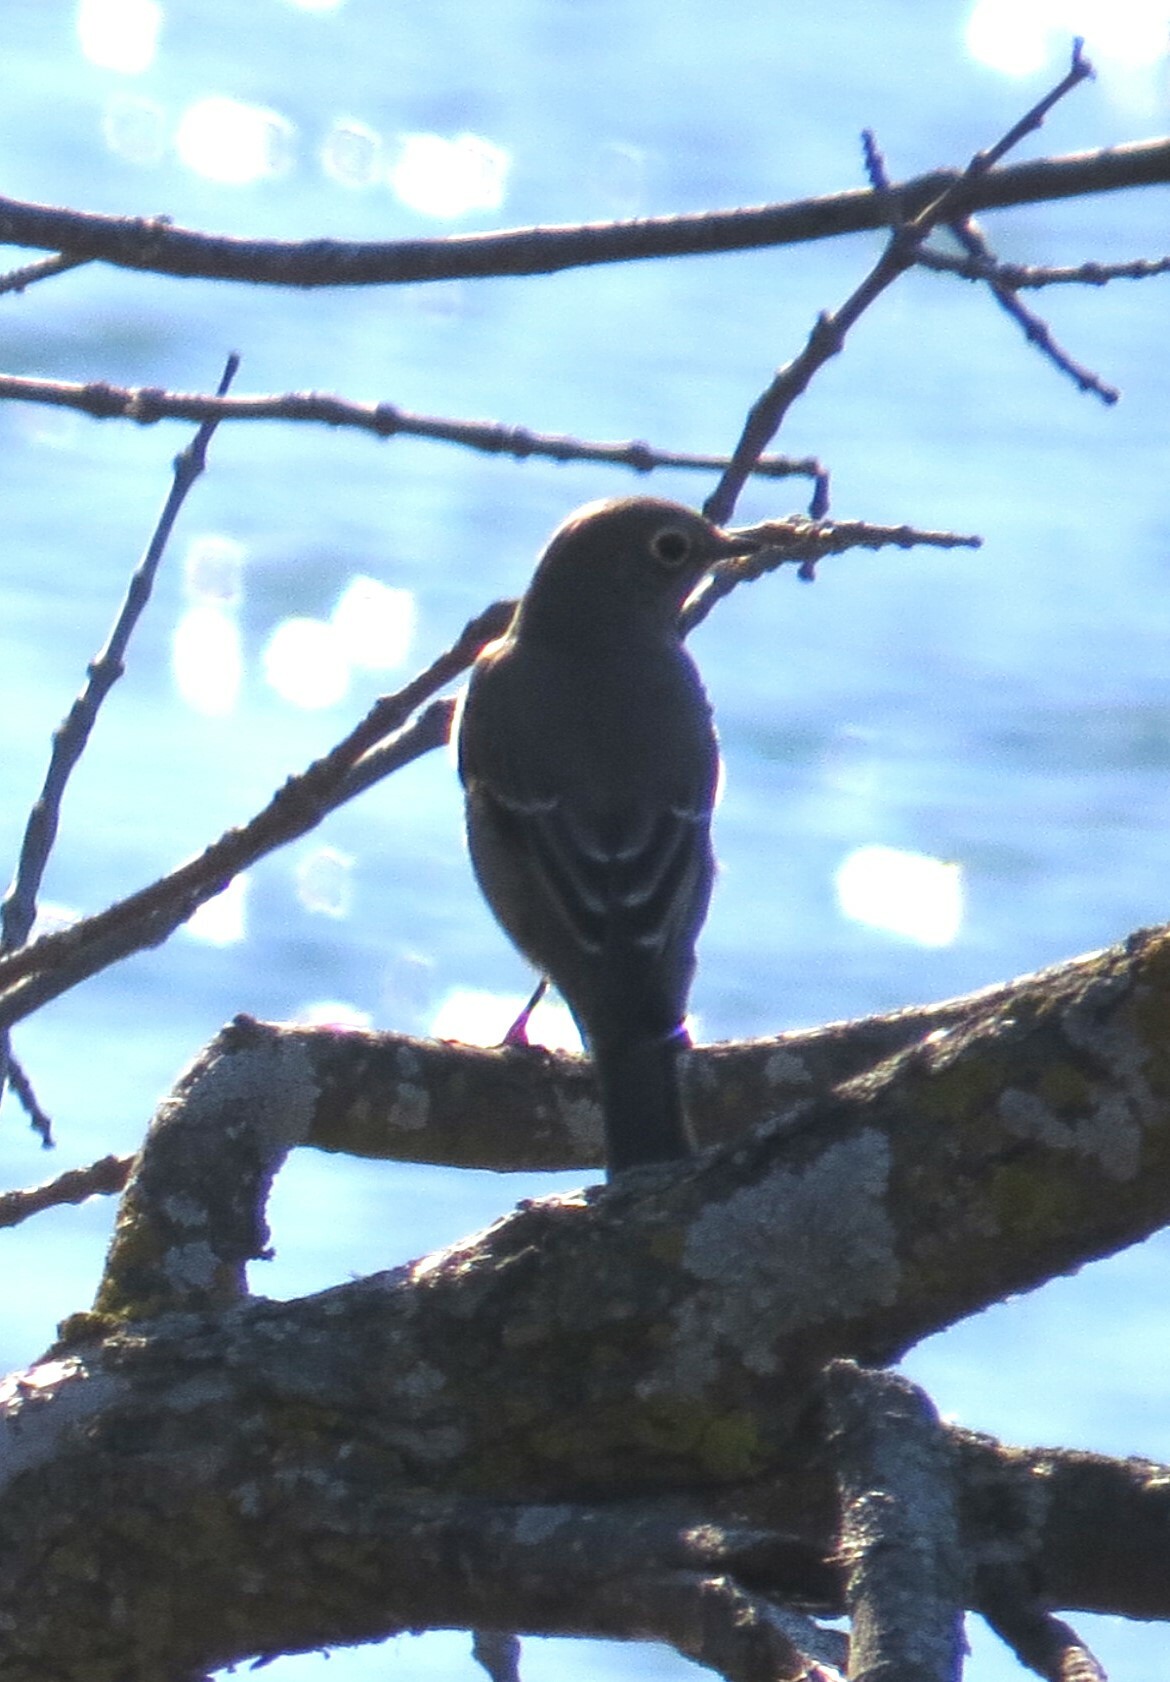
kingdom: Animalia
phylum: Chordata
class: Aves
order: Passeriformes
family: Turdidae
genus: Myadestes
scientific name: Myadestes townsendi
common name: Townsend's solitaire
